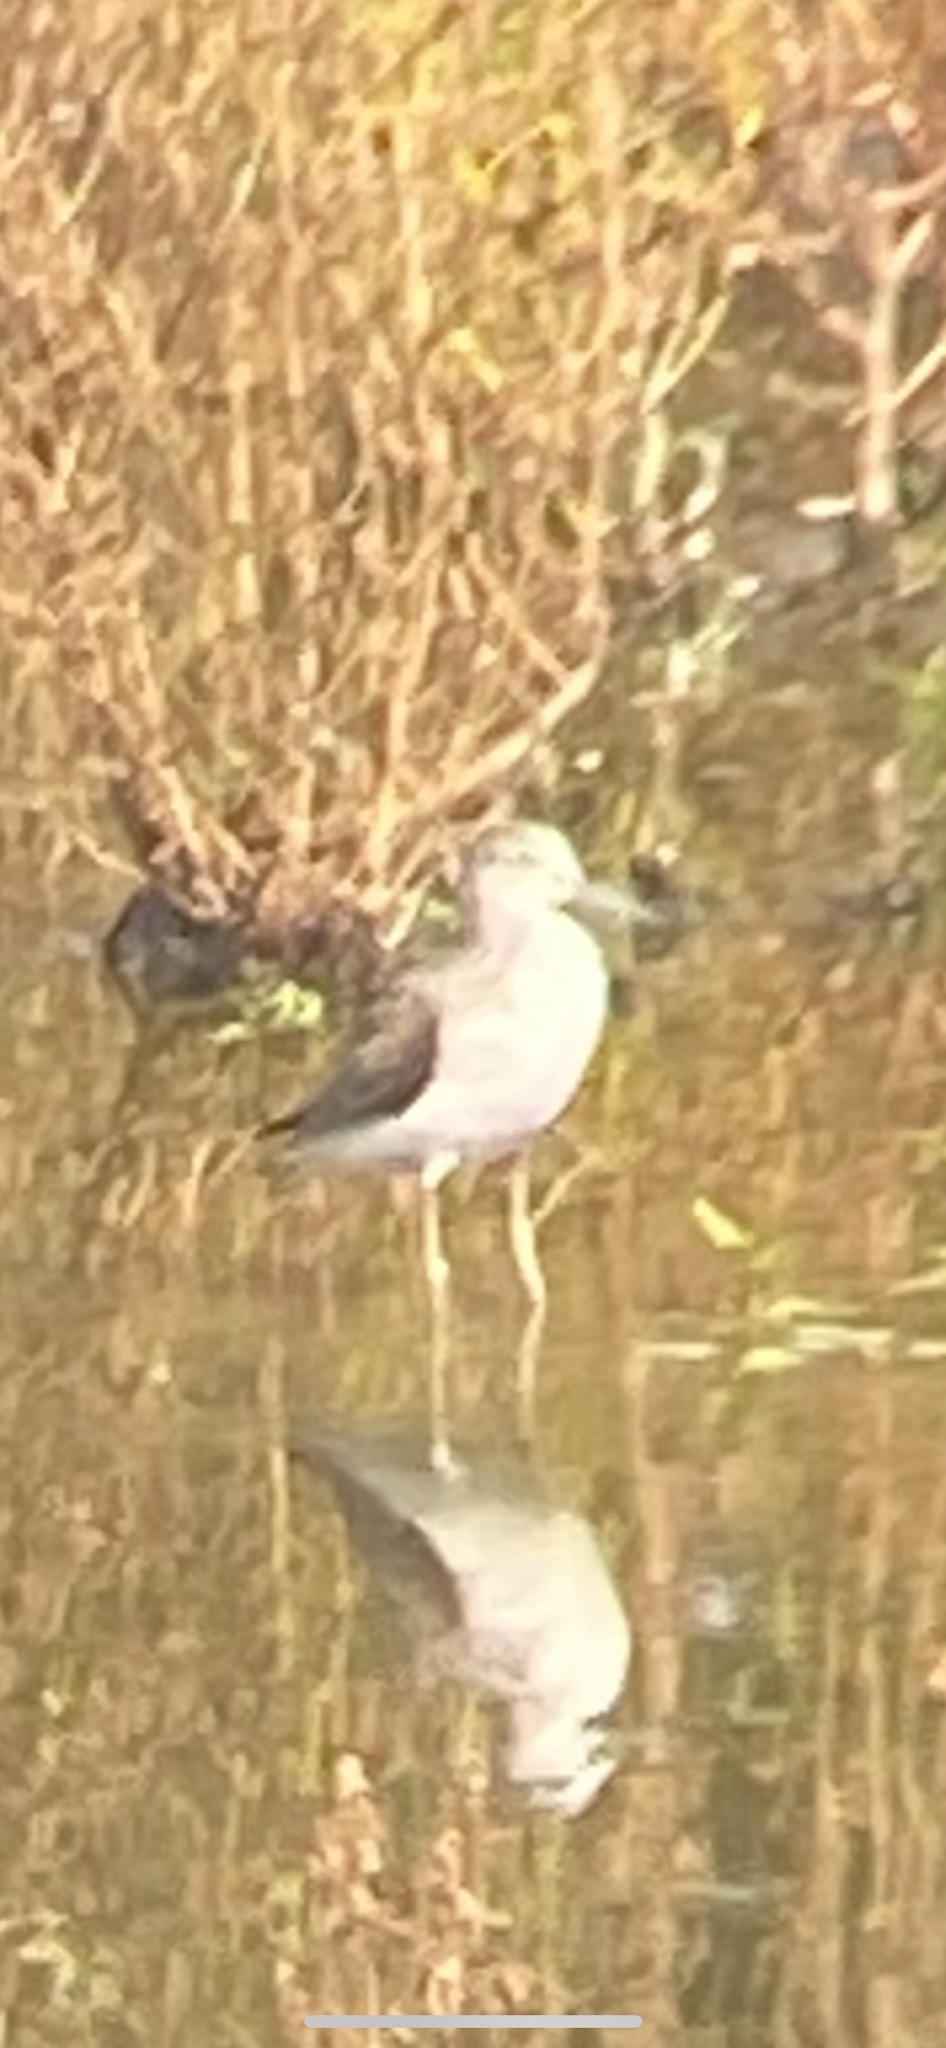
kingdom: Animalia
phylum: Chordata
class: Aves
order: Charadriiformes
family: Scolopacidae
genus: Tringa
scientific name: Tringa nebularia
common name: Common greenshank
